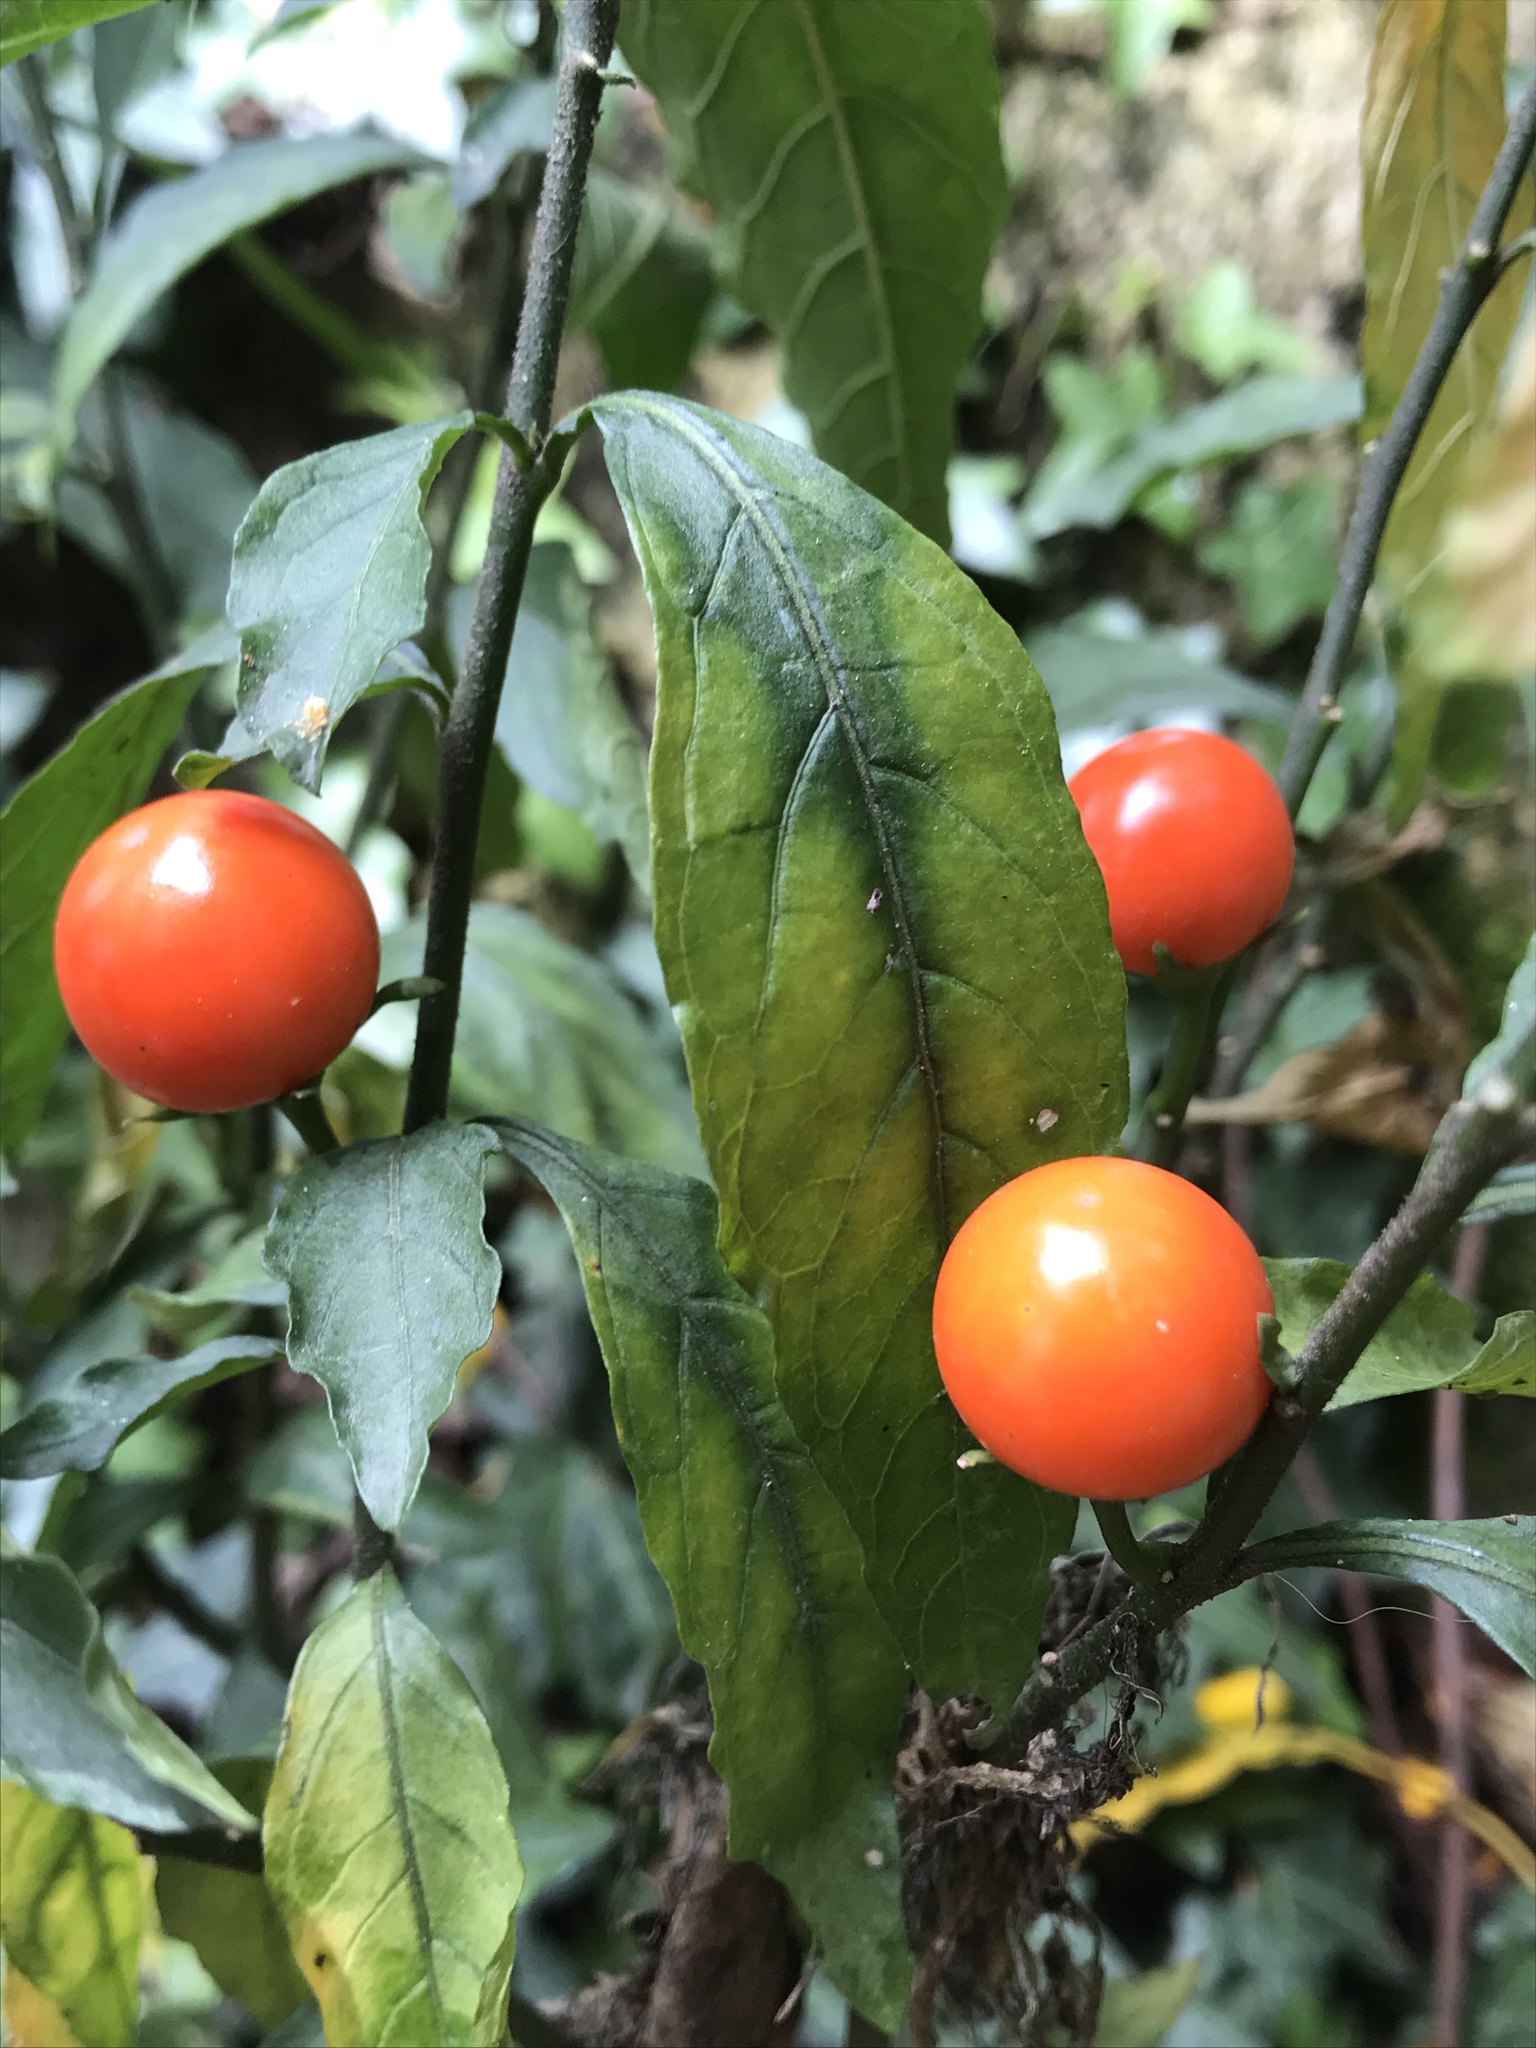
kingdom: Plantae
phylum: Tracheophyta
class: Magnoliopsida
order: Solanales
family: Solanaceae
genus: Solanum
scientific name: Solanum pseudocapsicum
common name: Jerusalem cherry
